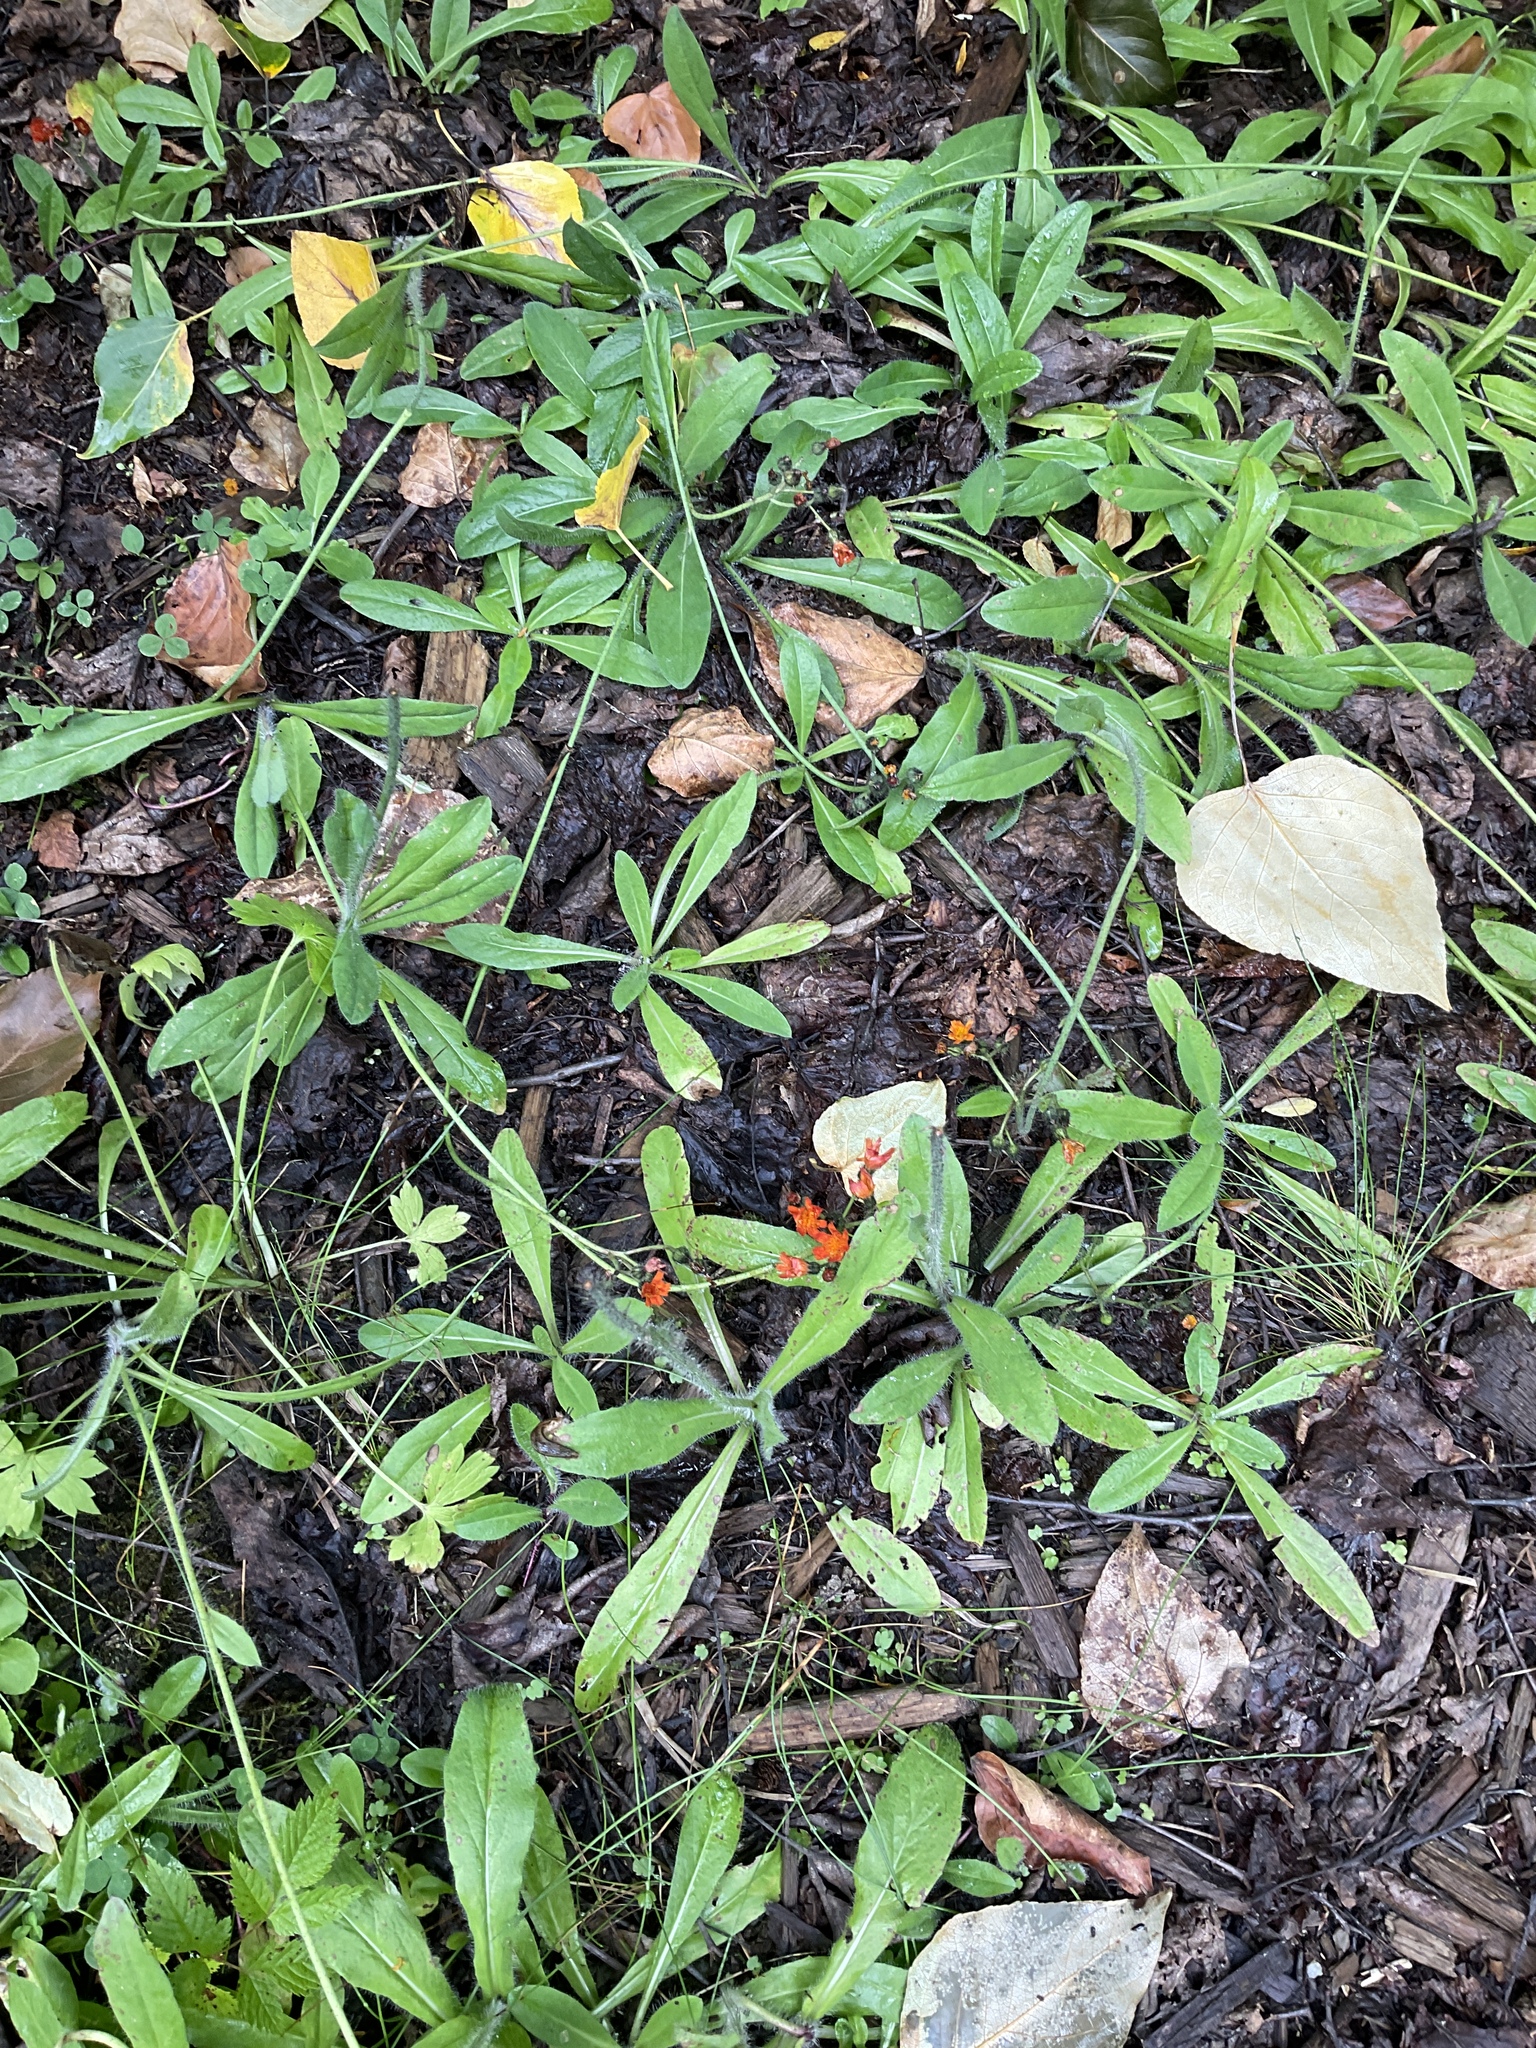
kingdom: Plantae
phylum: Tracheophyta
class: Magnoliopsida
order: Asterales
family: Asteraceae
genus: Pilosella
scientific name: Pilosella aurantiaca
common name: Fox-and-cubs
